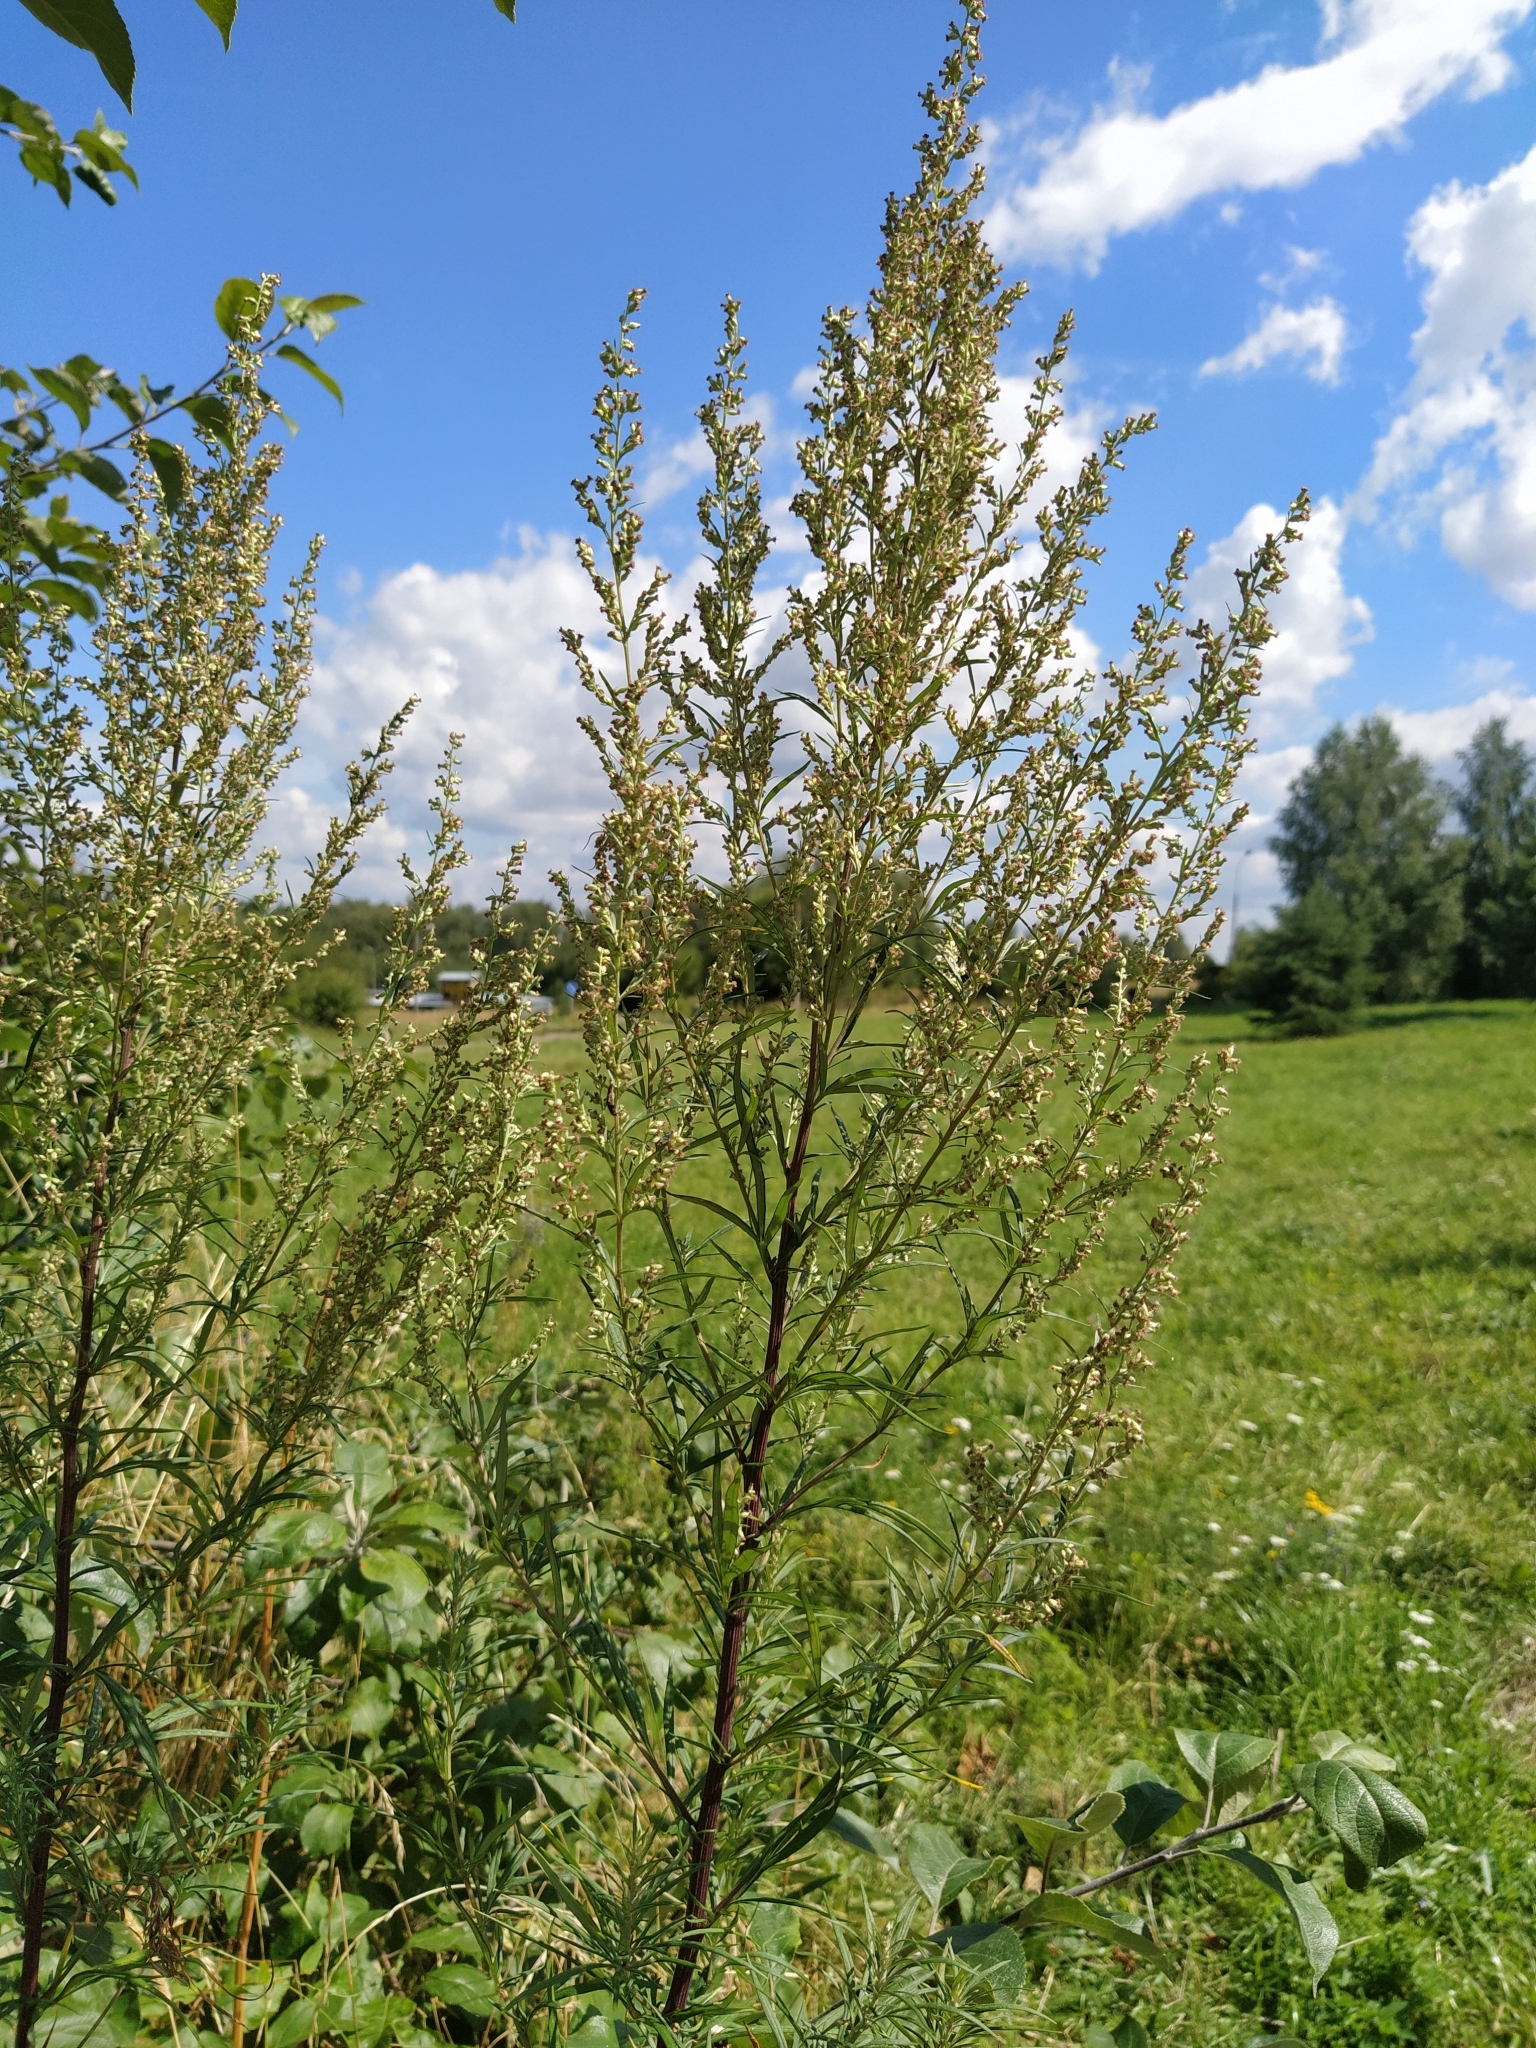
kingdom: Plantae
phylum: Tracheophyta
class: Magnoliopsida
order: Asterales
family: Asteraceae
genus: Artemisia
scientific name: Artemisia vulgaris
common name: Mugwort
